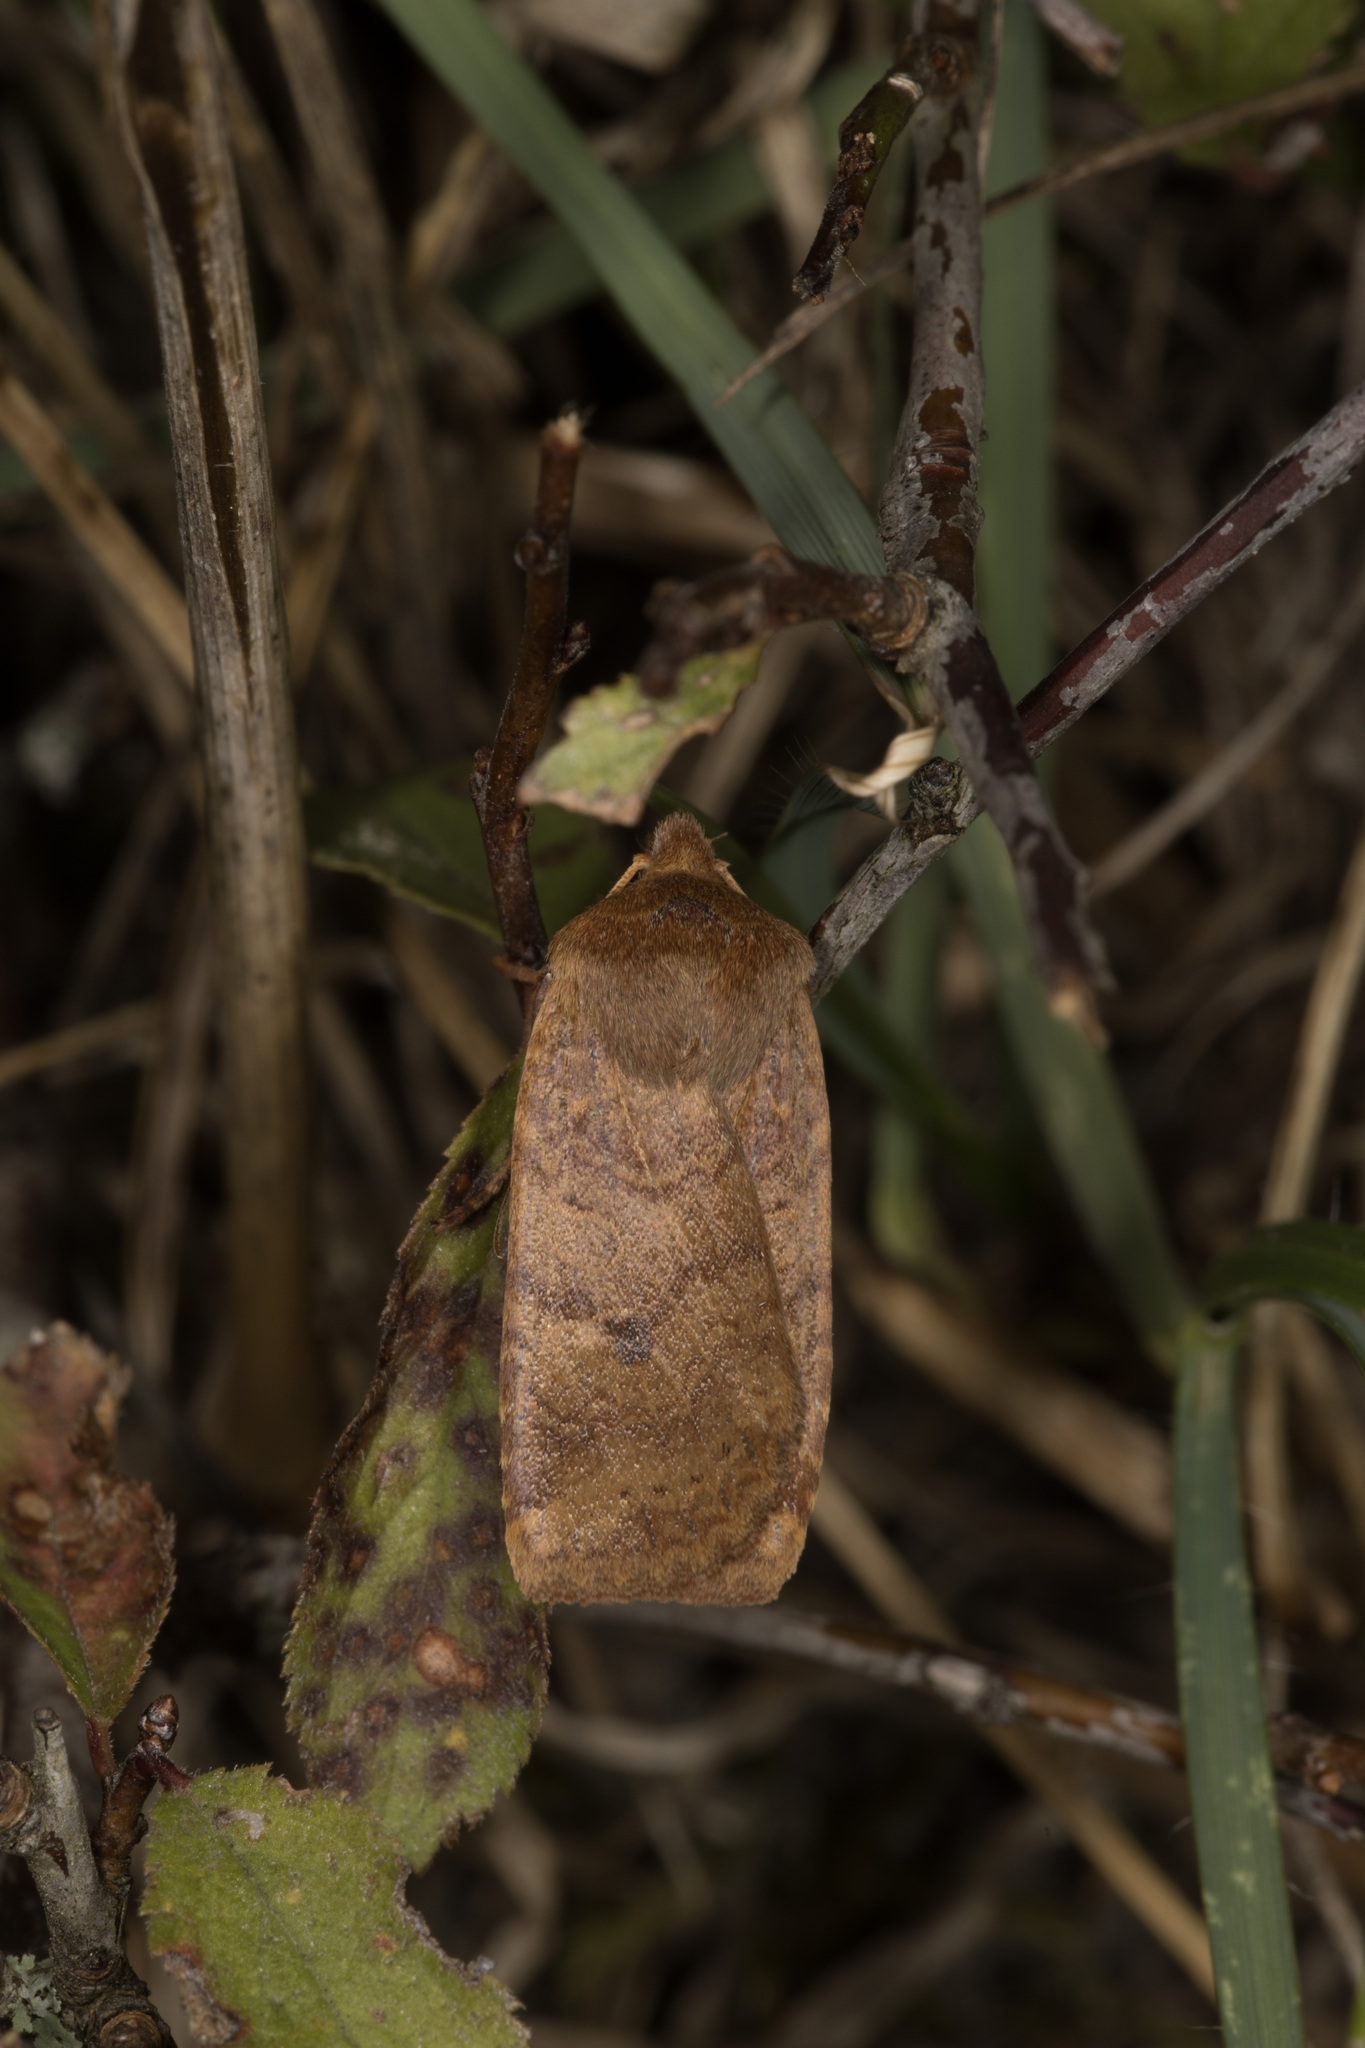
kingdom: Animalia
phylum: Arthropoda
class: Insecta
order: Lepidoptera
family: Noctuidae
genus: Conistra
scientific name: Conistra vaccinii
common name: Chestnut
